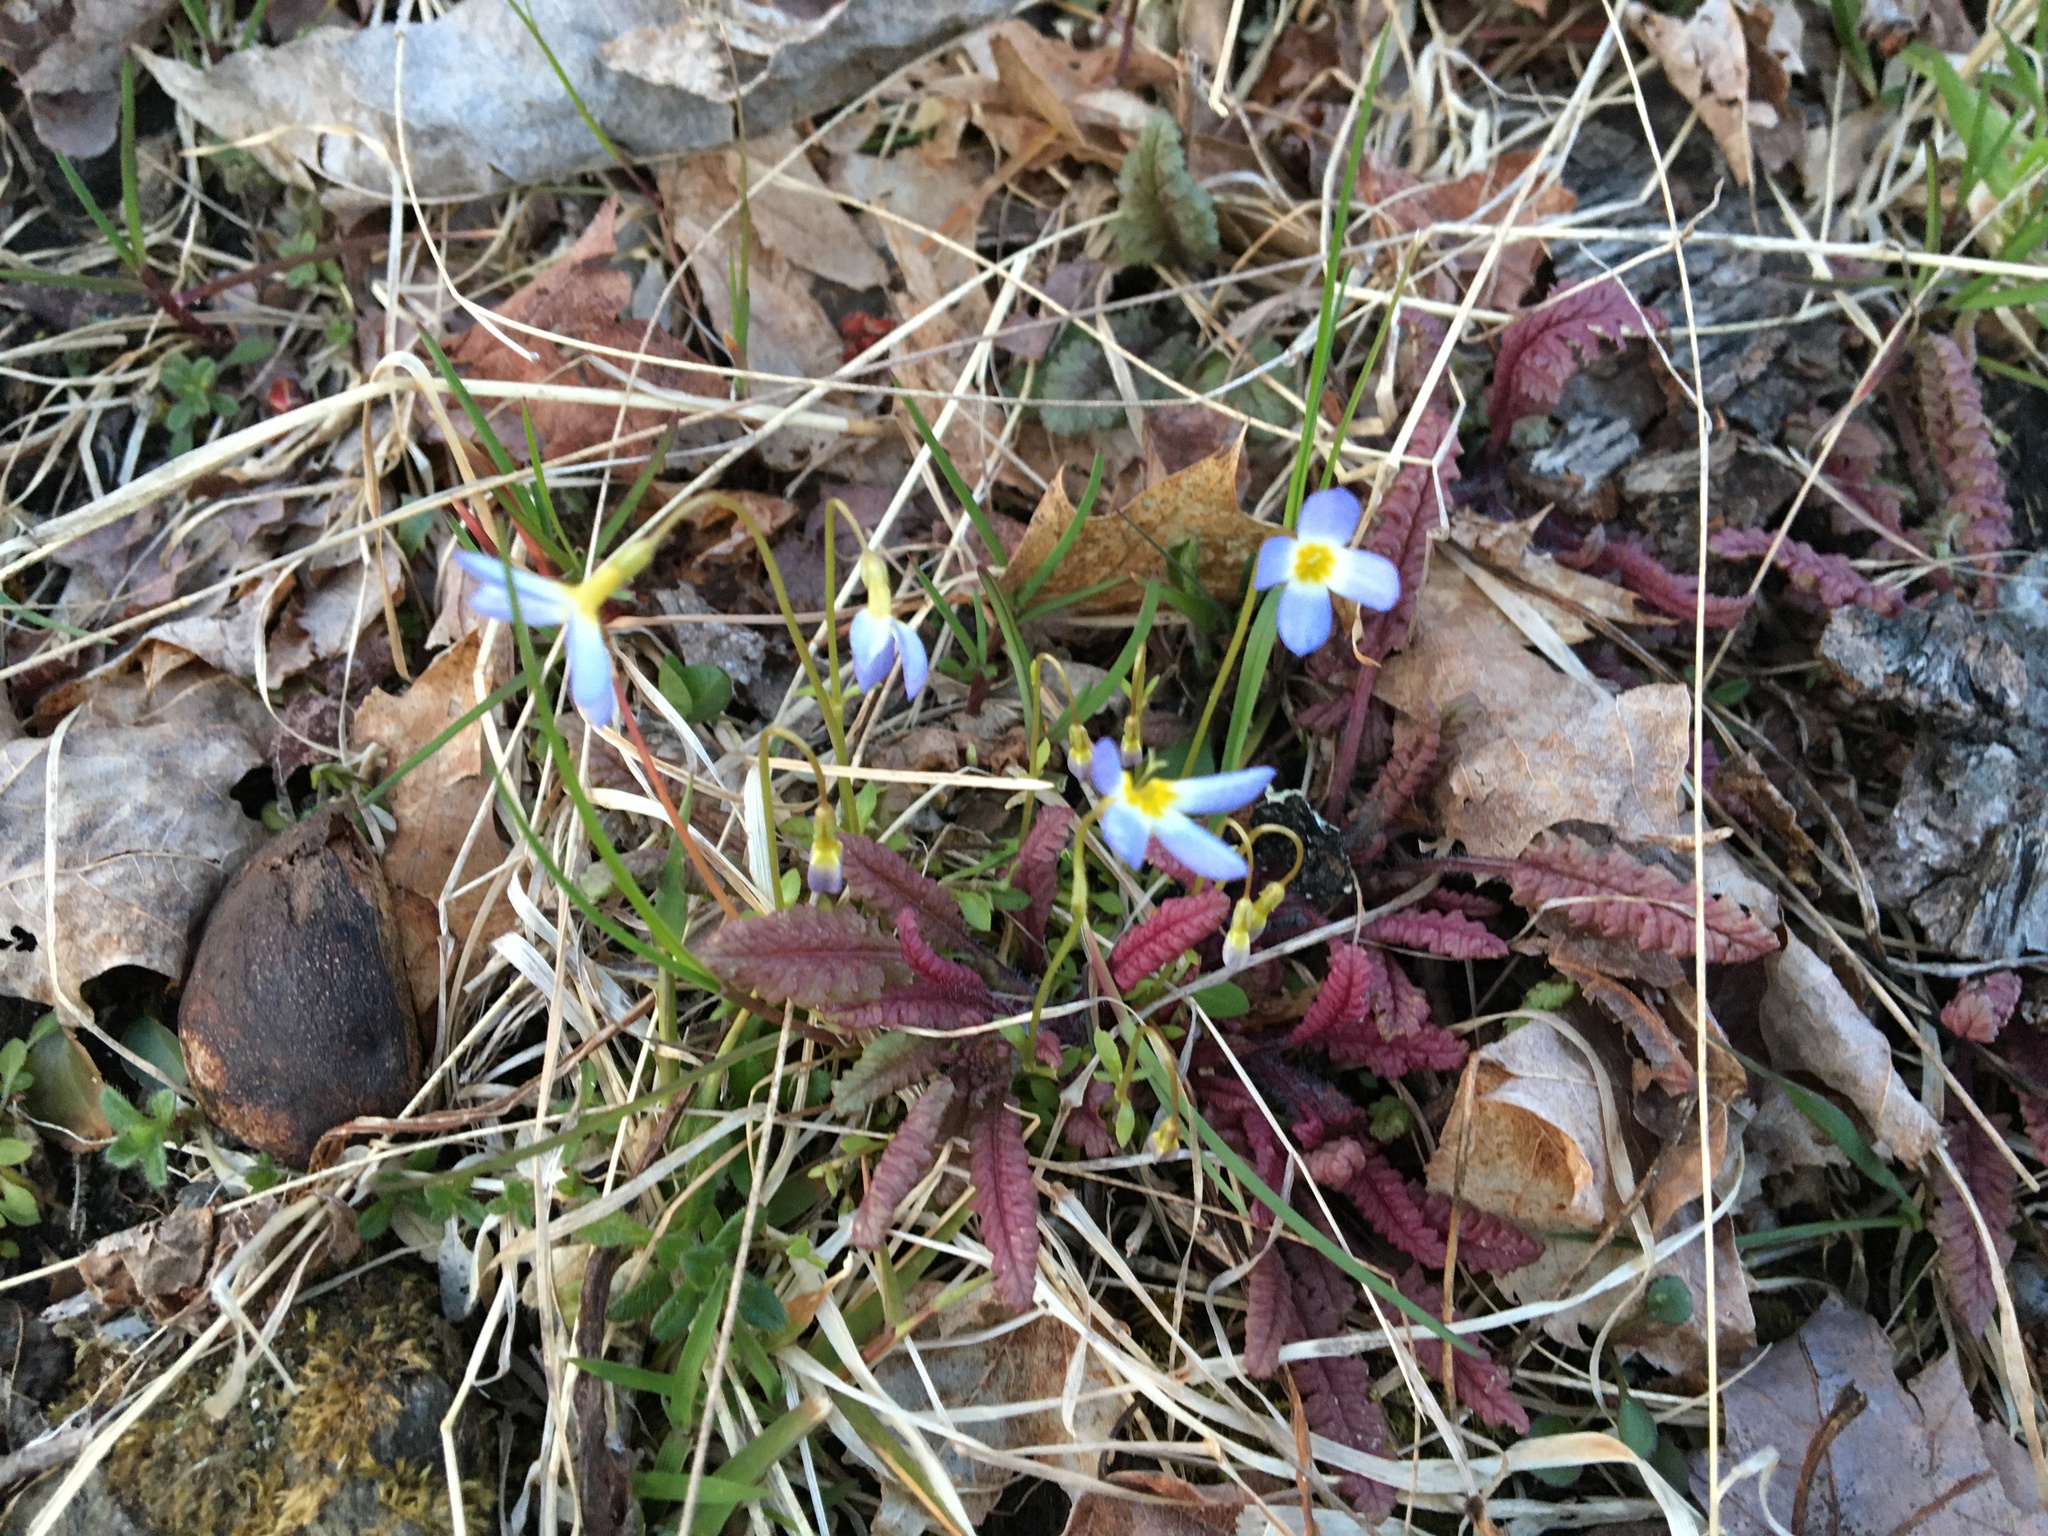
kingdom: Plantae
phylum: Tracheophyta
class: Magnoliopsida
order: Gentianales
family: Rubiaceae
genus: Houstonia
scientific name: Houstonia caerulea
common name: Bluets
